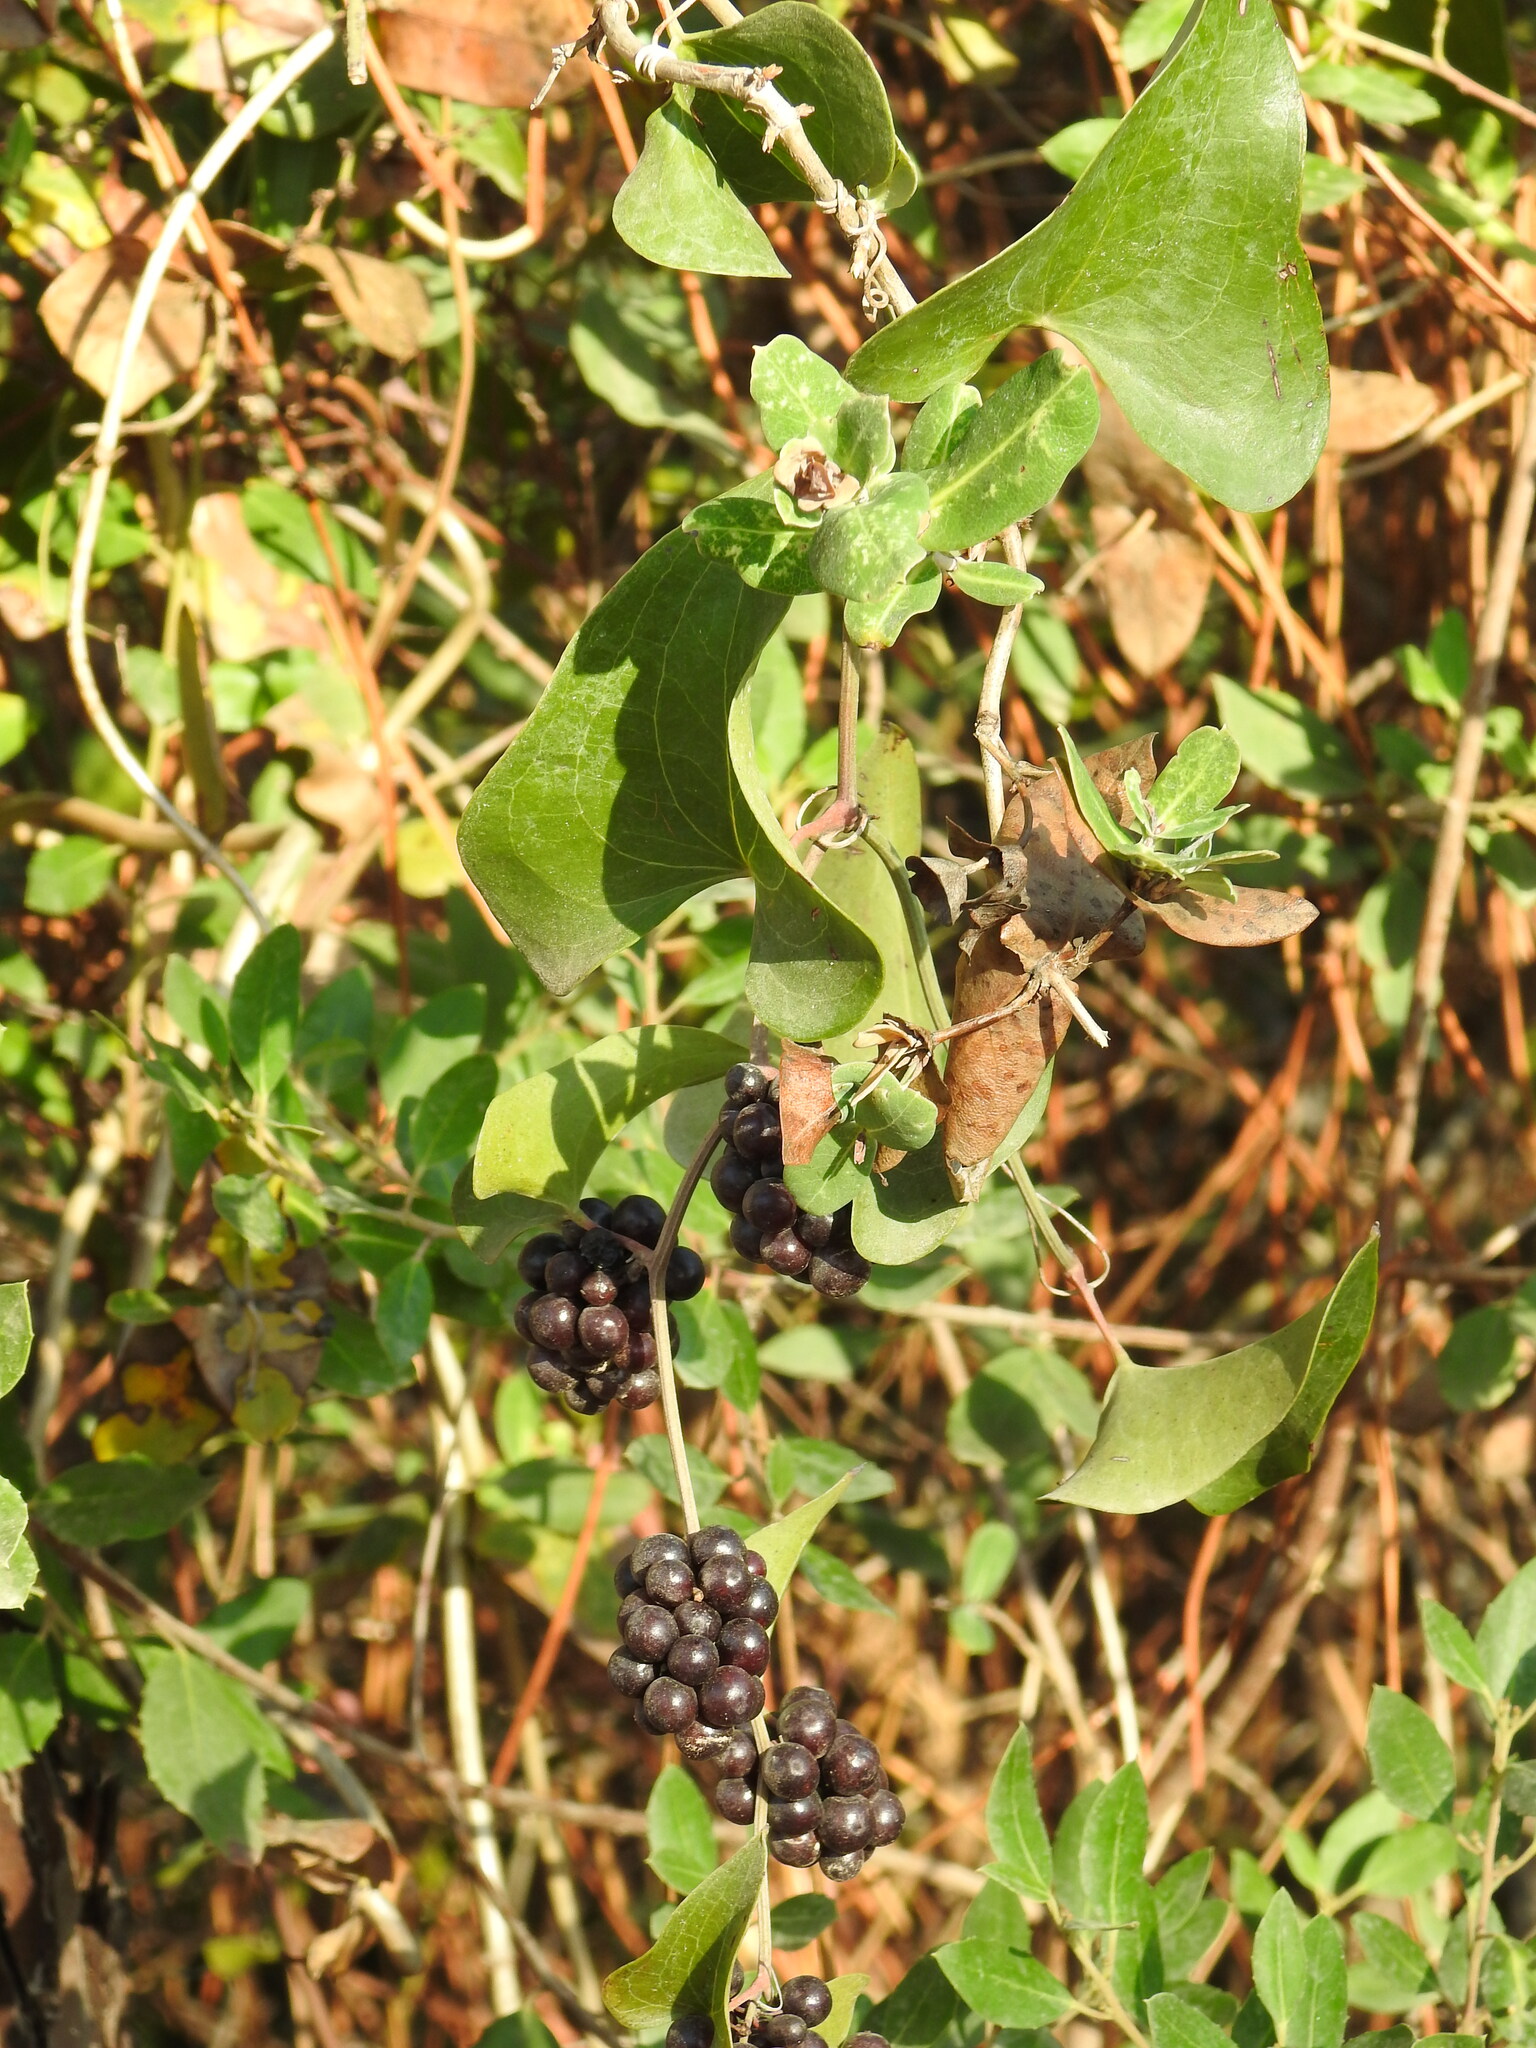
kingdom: Plantae
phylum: Tracheophyta
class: Liliopsida
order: Liliales
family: Smilacaceae
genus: Smilax
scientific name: Smilax aspera
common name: Common smilax
